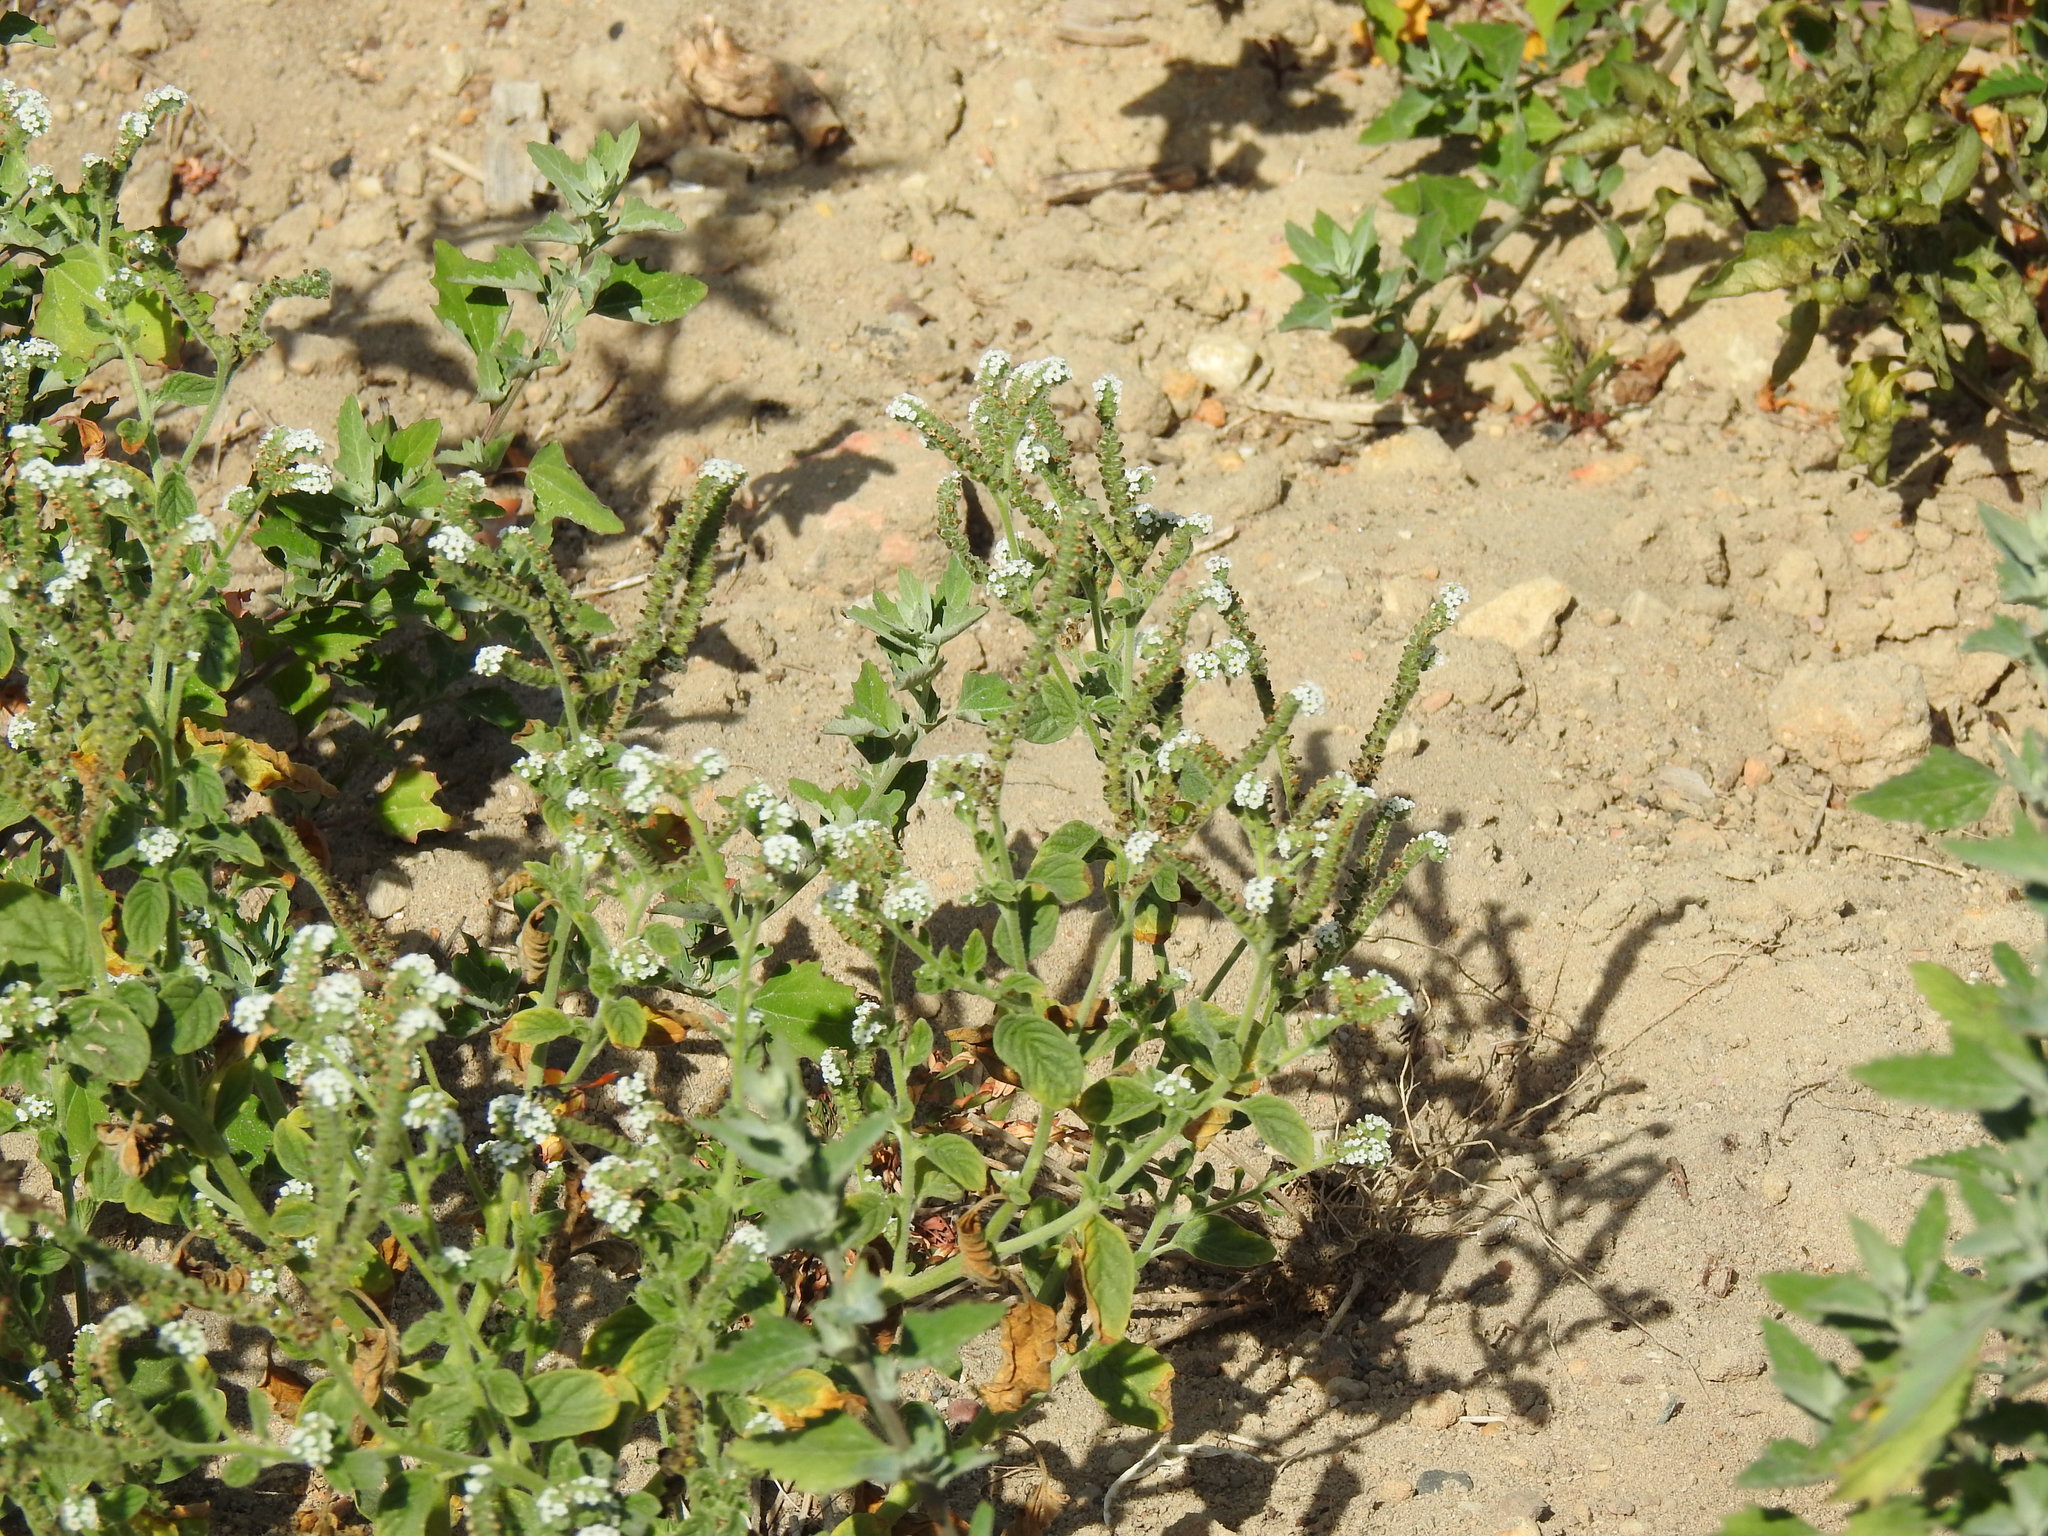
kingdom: Plantae
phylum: Tracheophyta
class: Magnoliopsida
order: Boraginales
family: Heliotropiaceae
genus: Heliotropium
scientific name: Heliotropium europaeum
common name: European heliotrope
